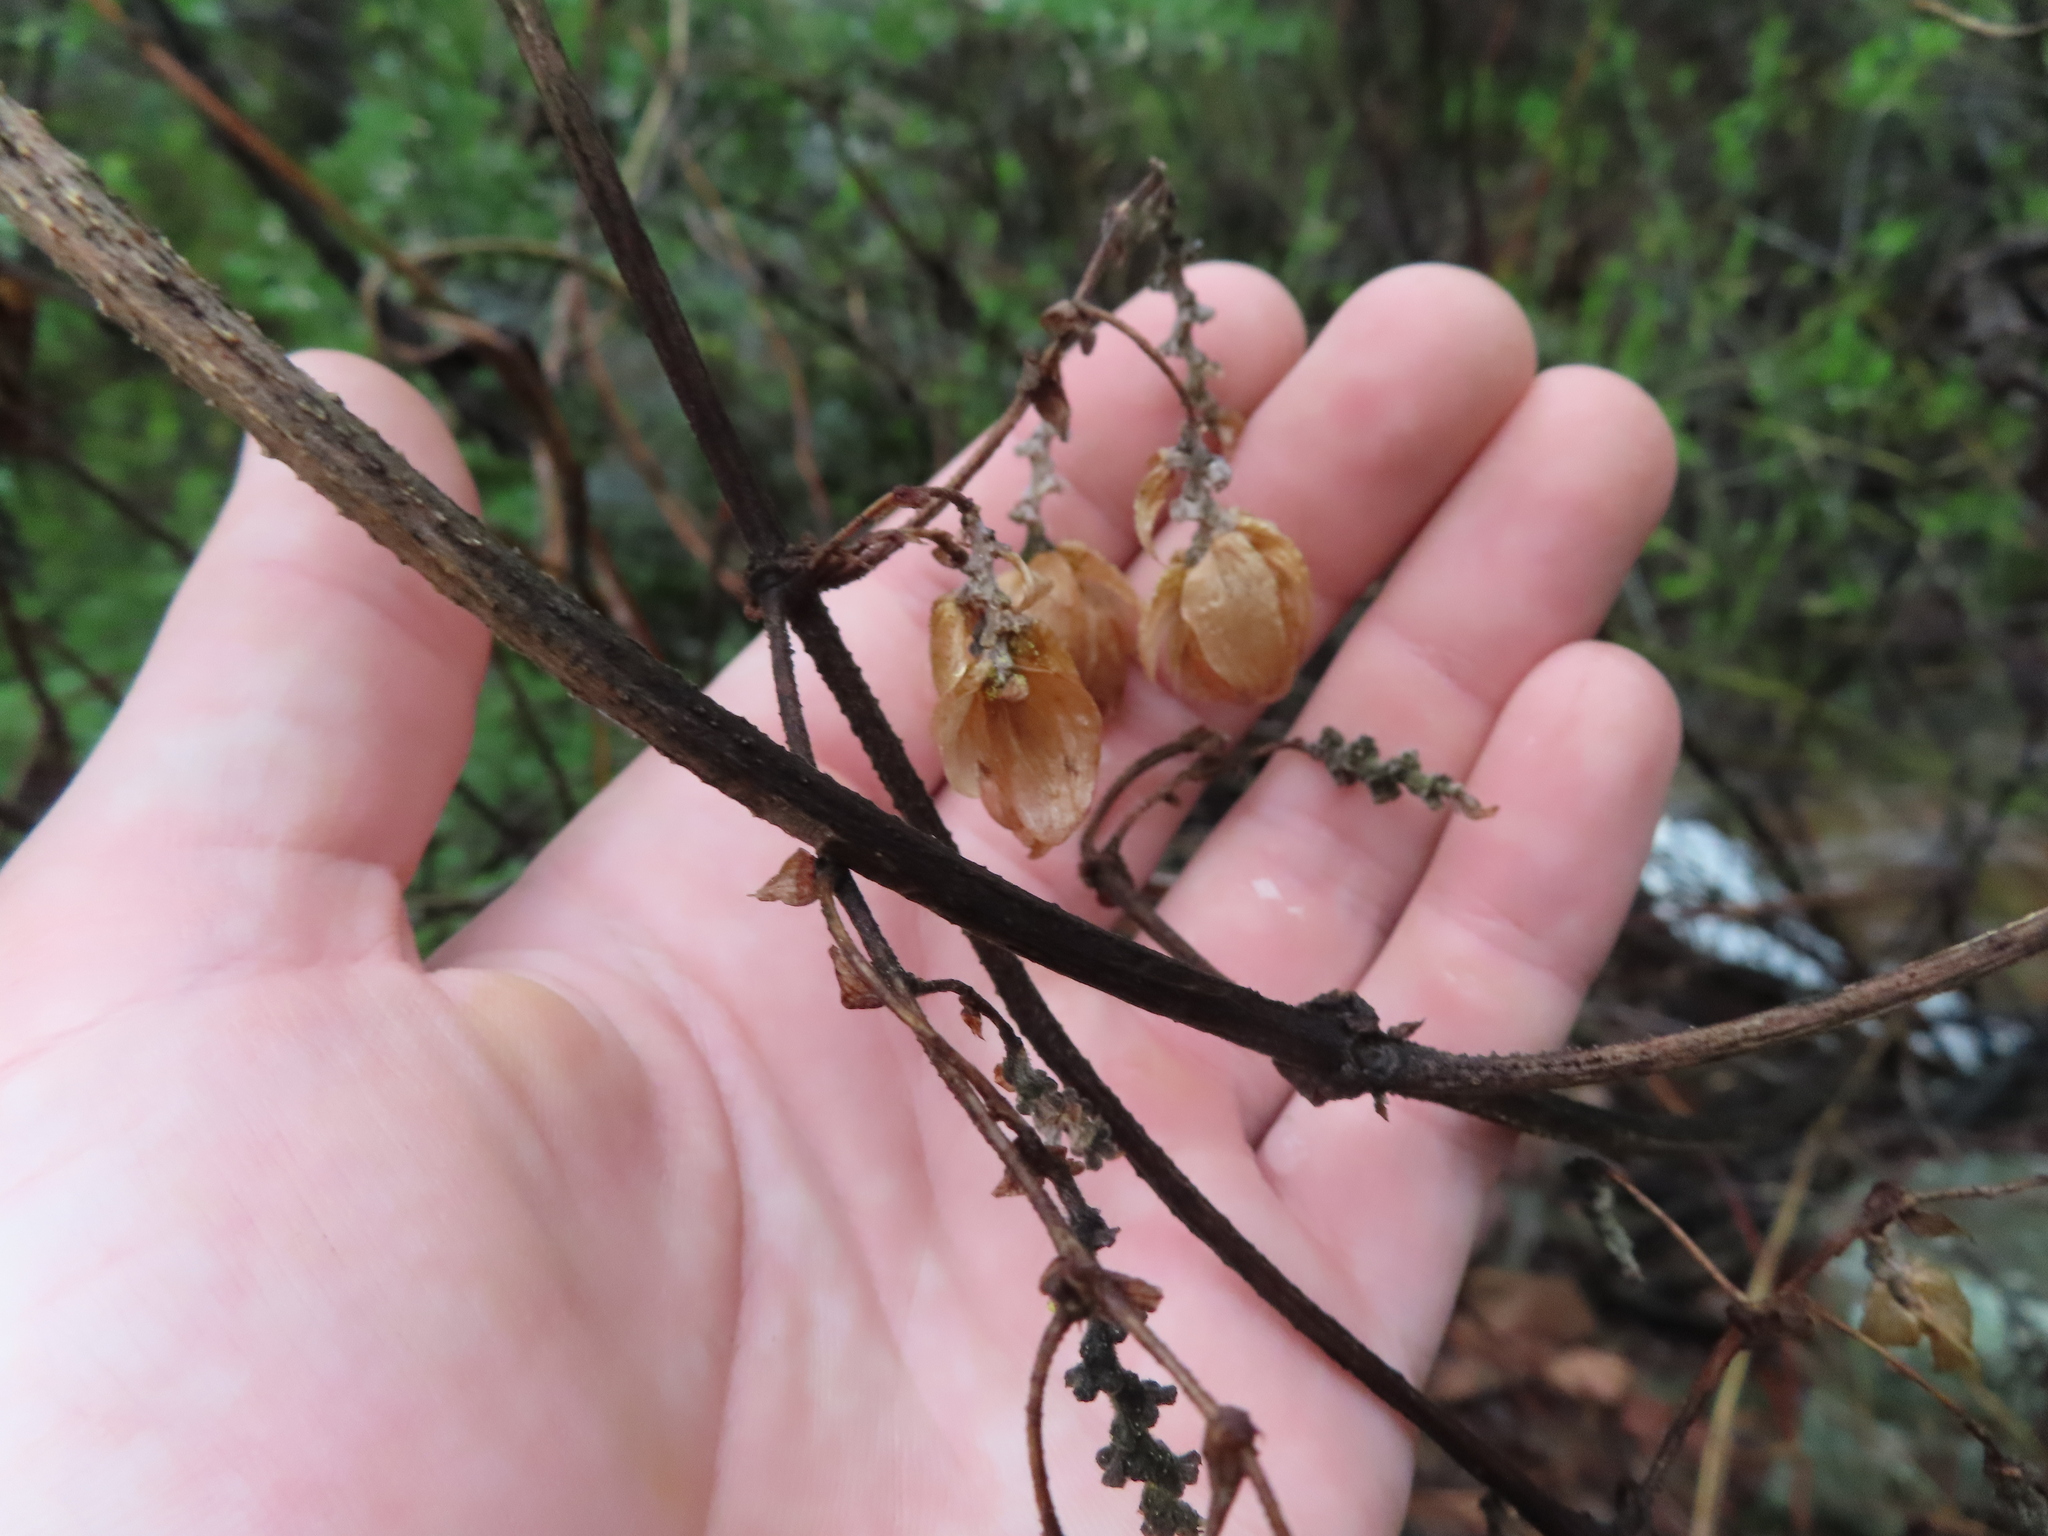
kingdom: Plantae
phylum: Tracheophyta
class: Magnoliopsida
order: Rosales
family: Cannabaceae
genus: Humulus
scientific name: Humulus lupulus
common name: Hop
